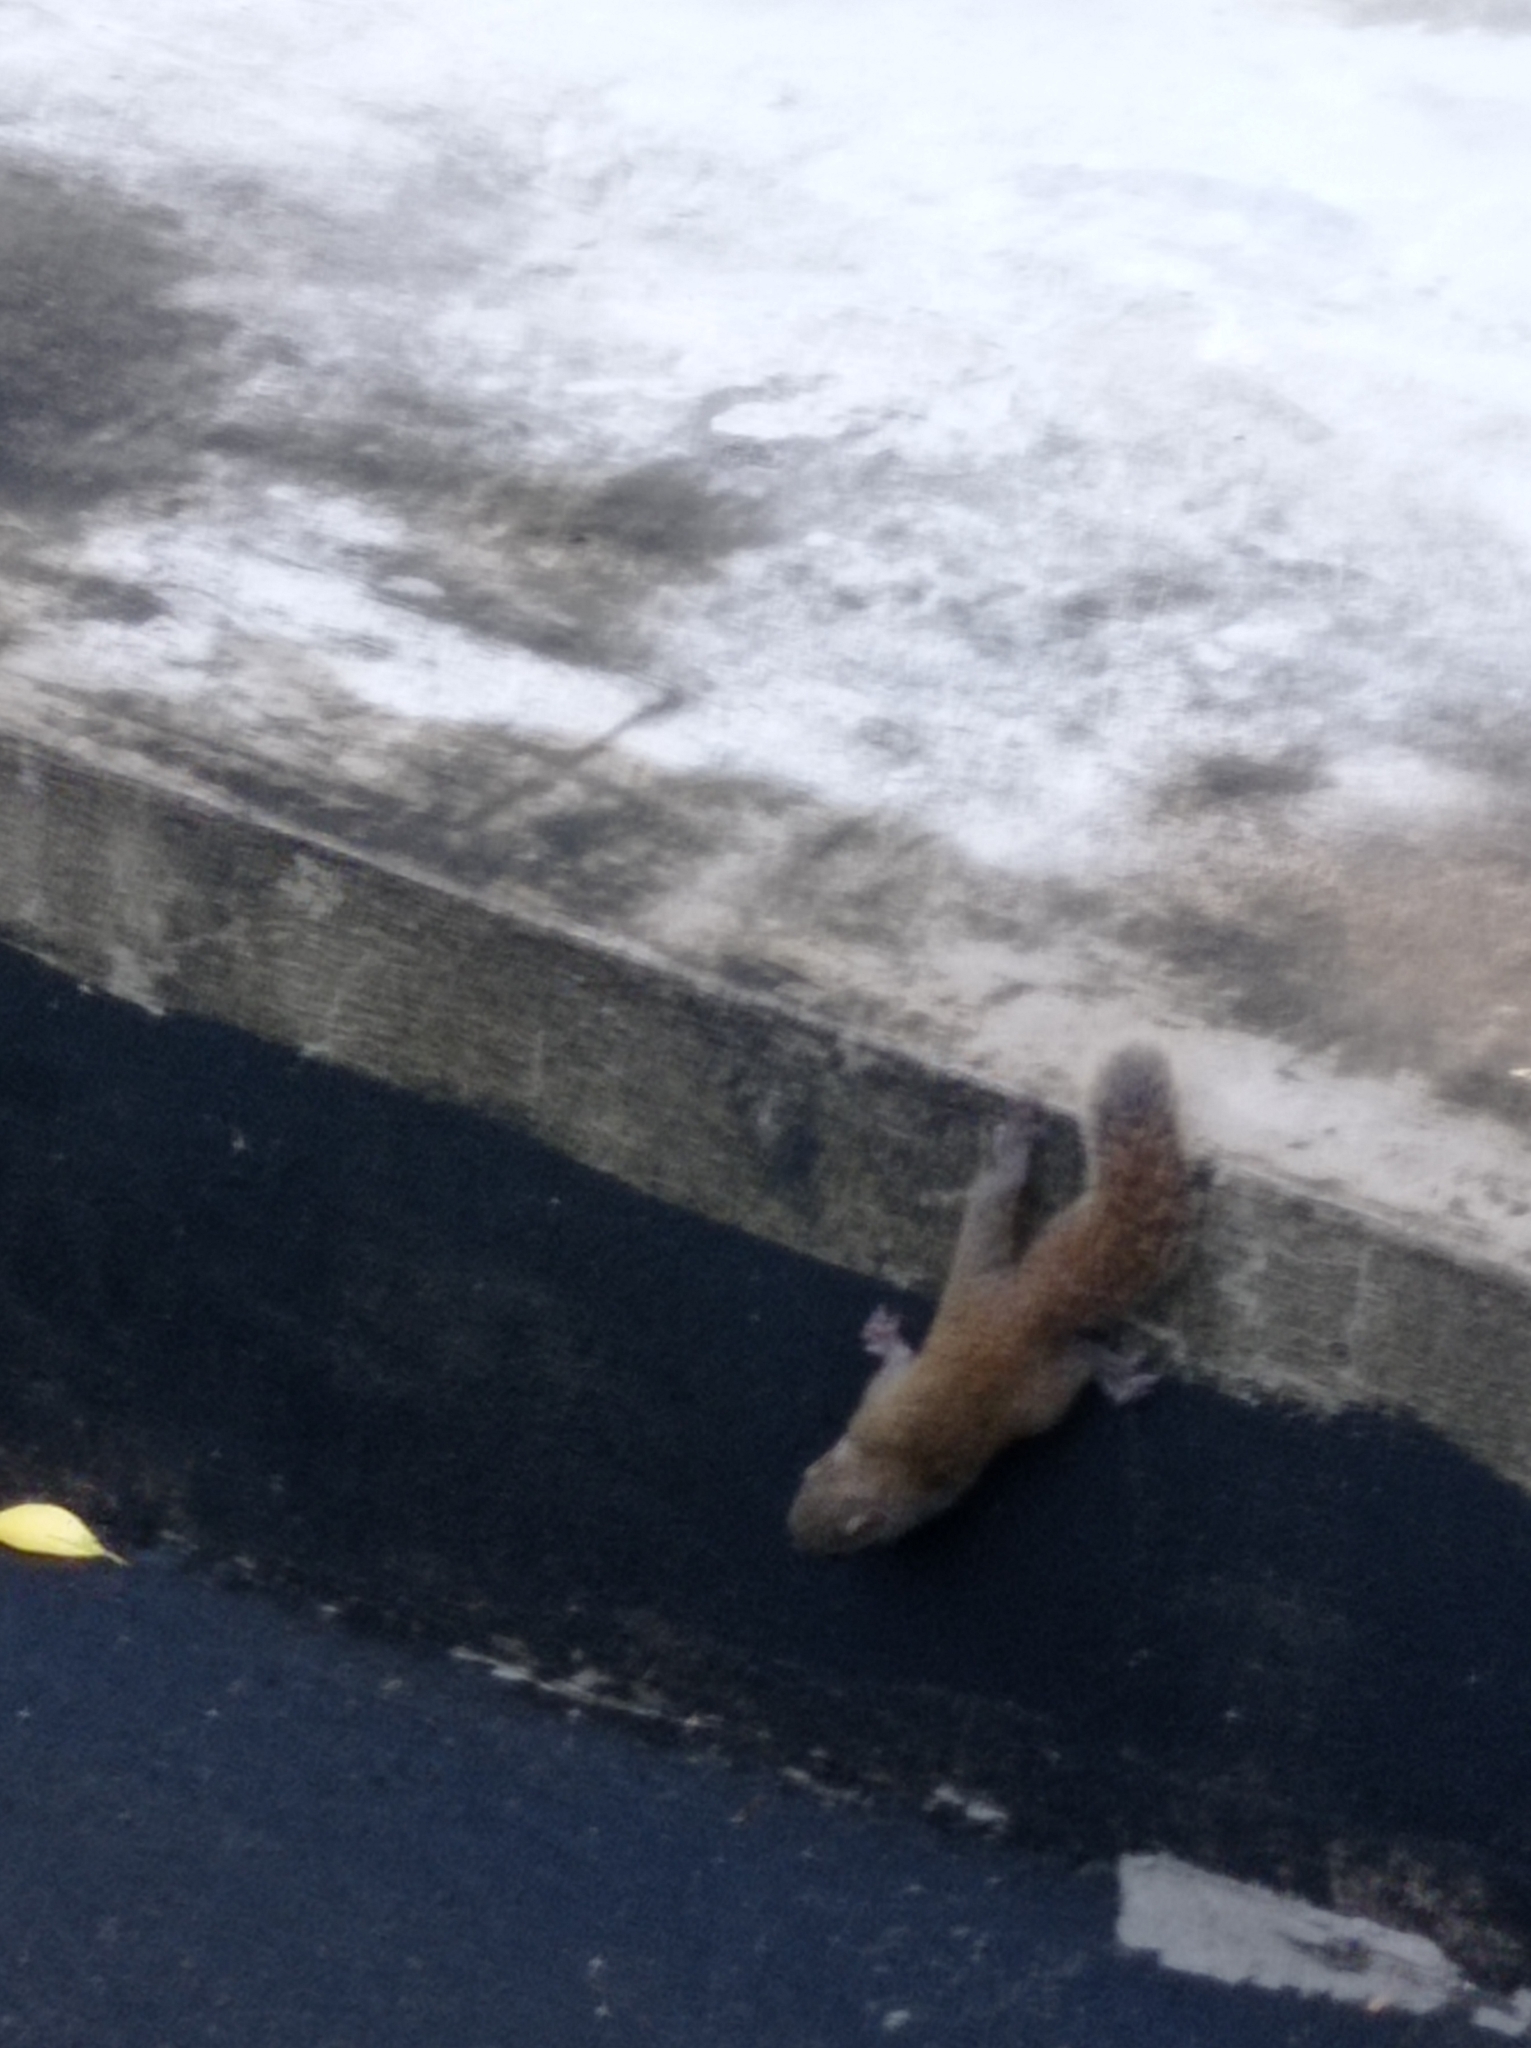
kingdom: Animalia
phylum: Chordata
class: Mammalia
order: Rodentia
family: Sciuridae
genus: Callosciurus
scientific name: Callosciurus erythraeus
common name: Pallas's squirrel
